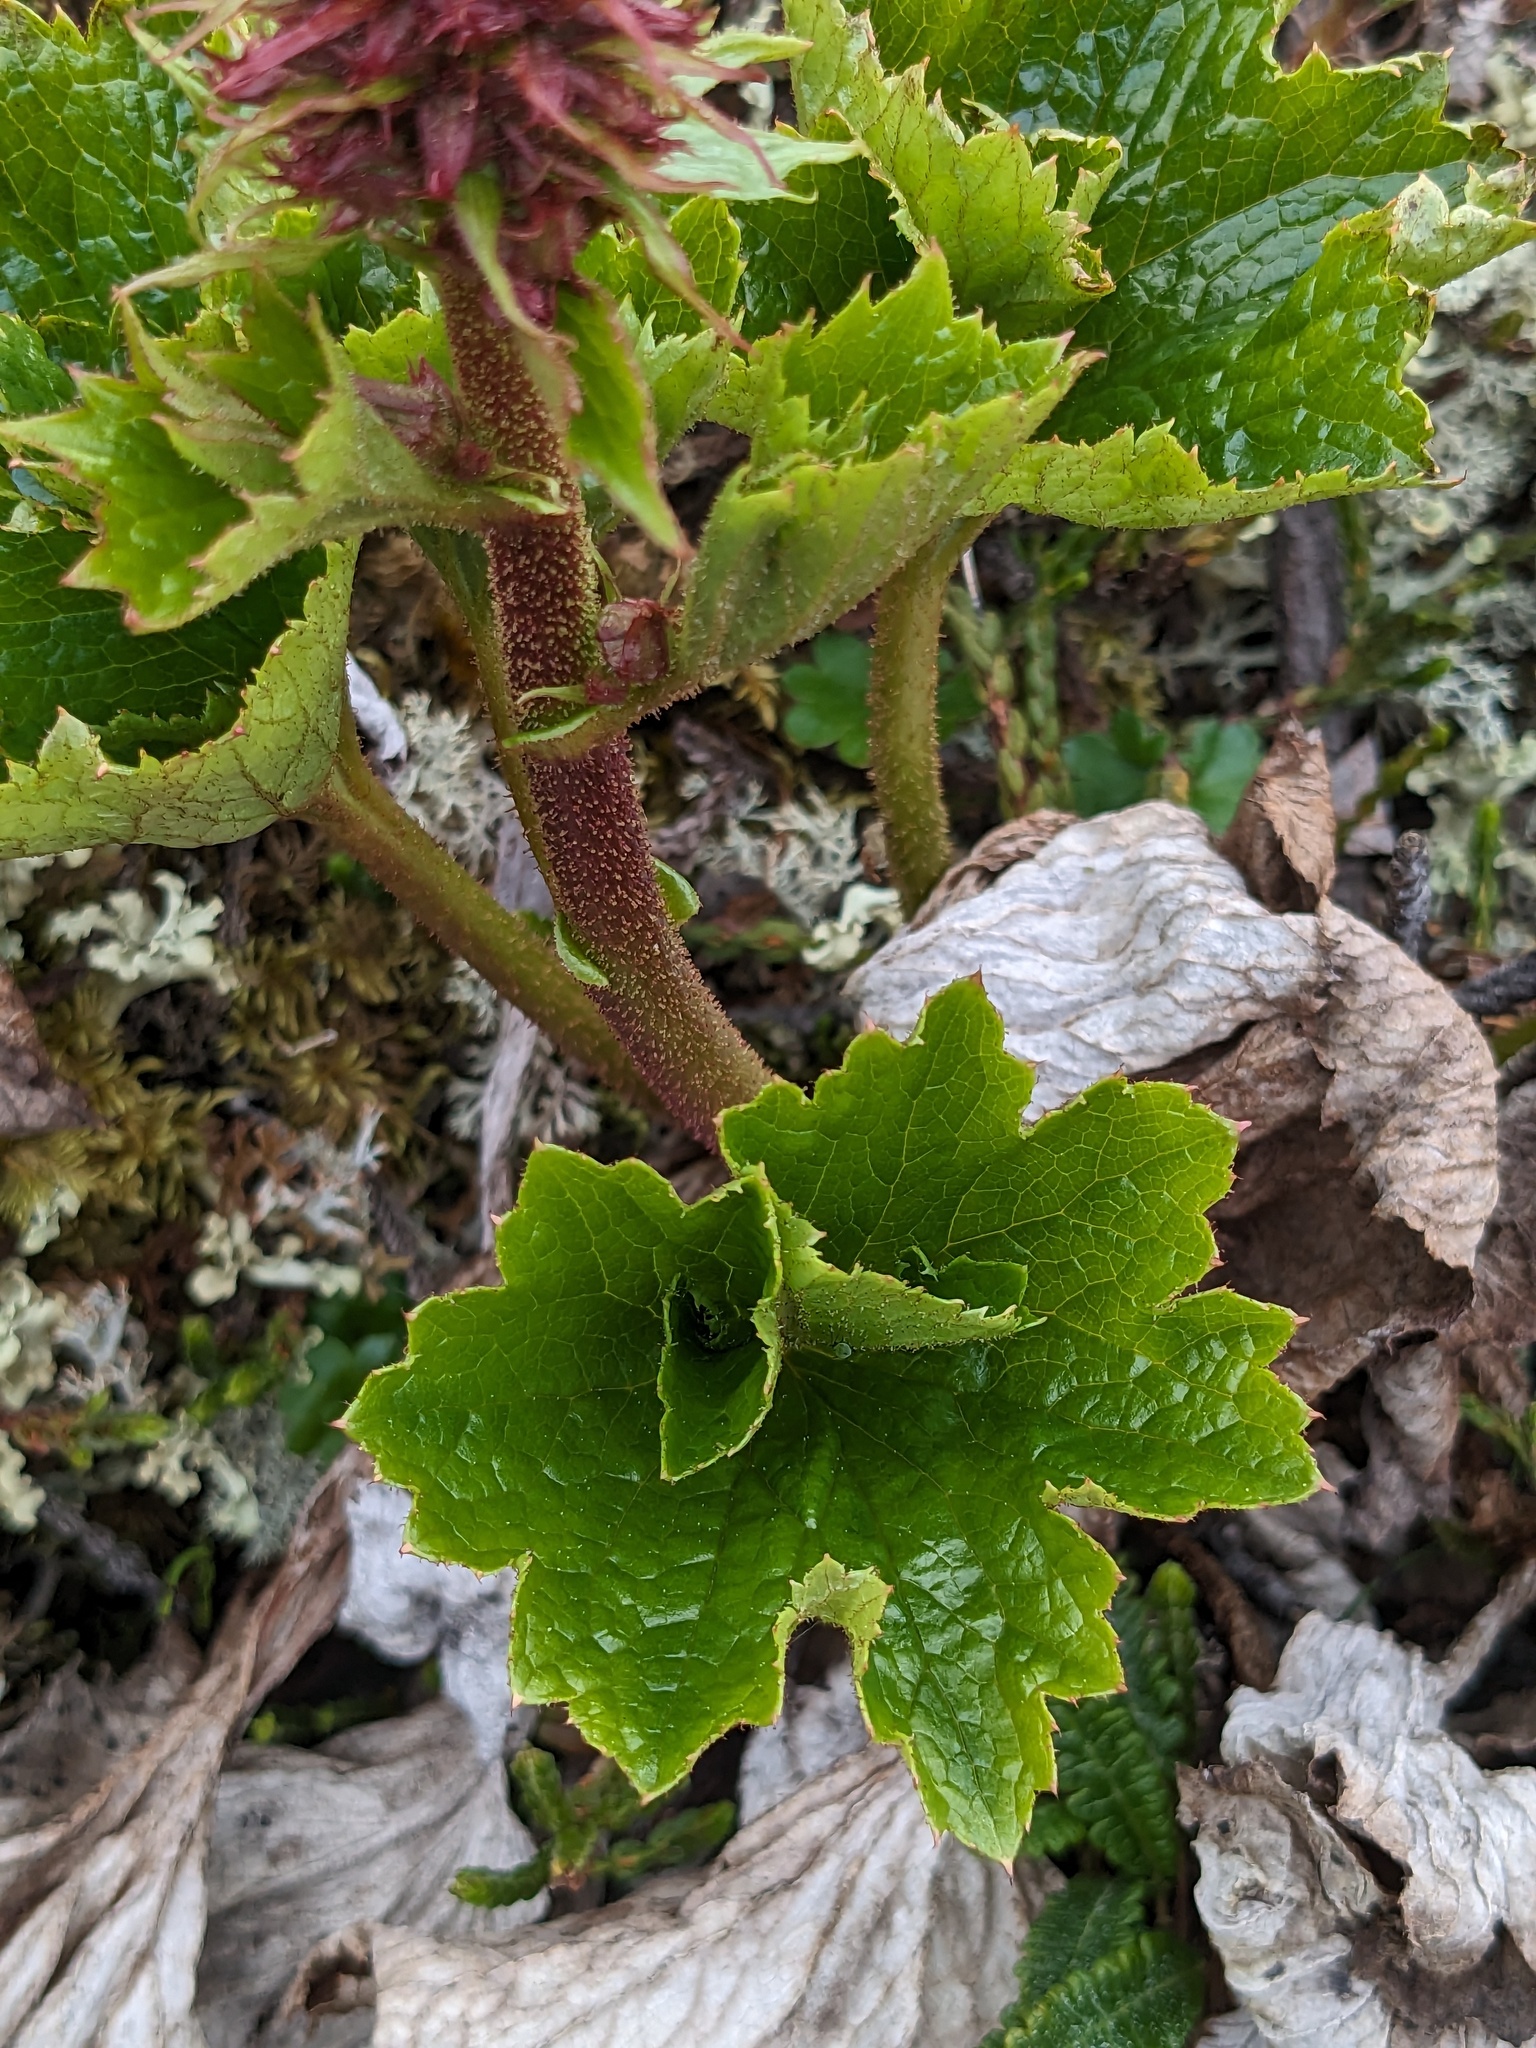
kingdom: Plantae
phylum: Tracheophyta
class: Magnoliopsida
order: Saxifragales
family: Saxifragaceae
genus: Boykinia
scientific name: Boykinia richardsonii
